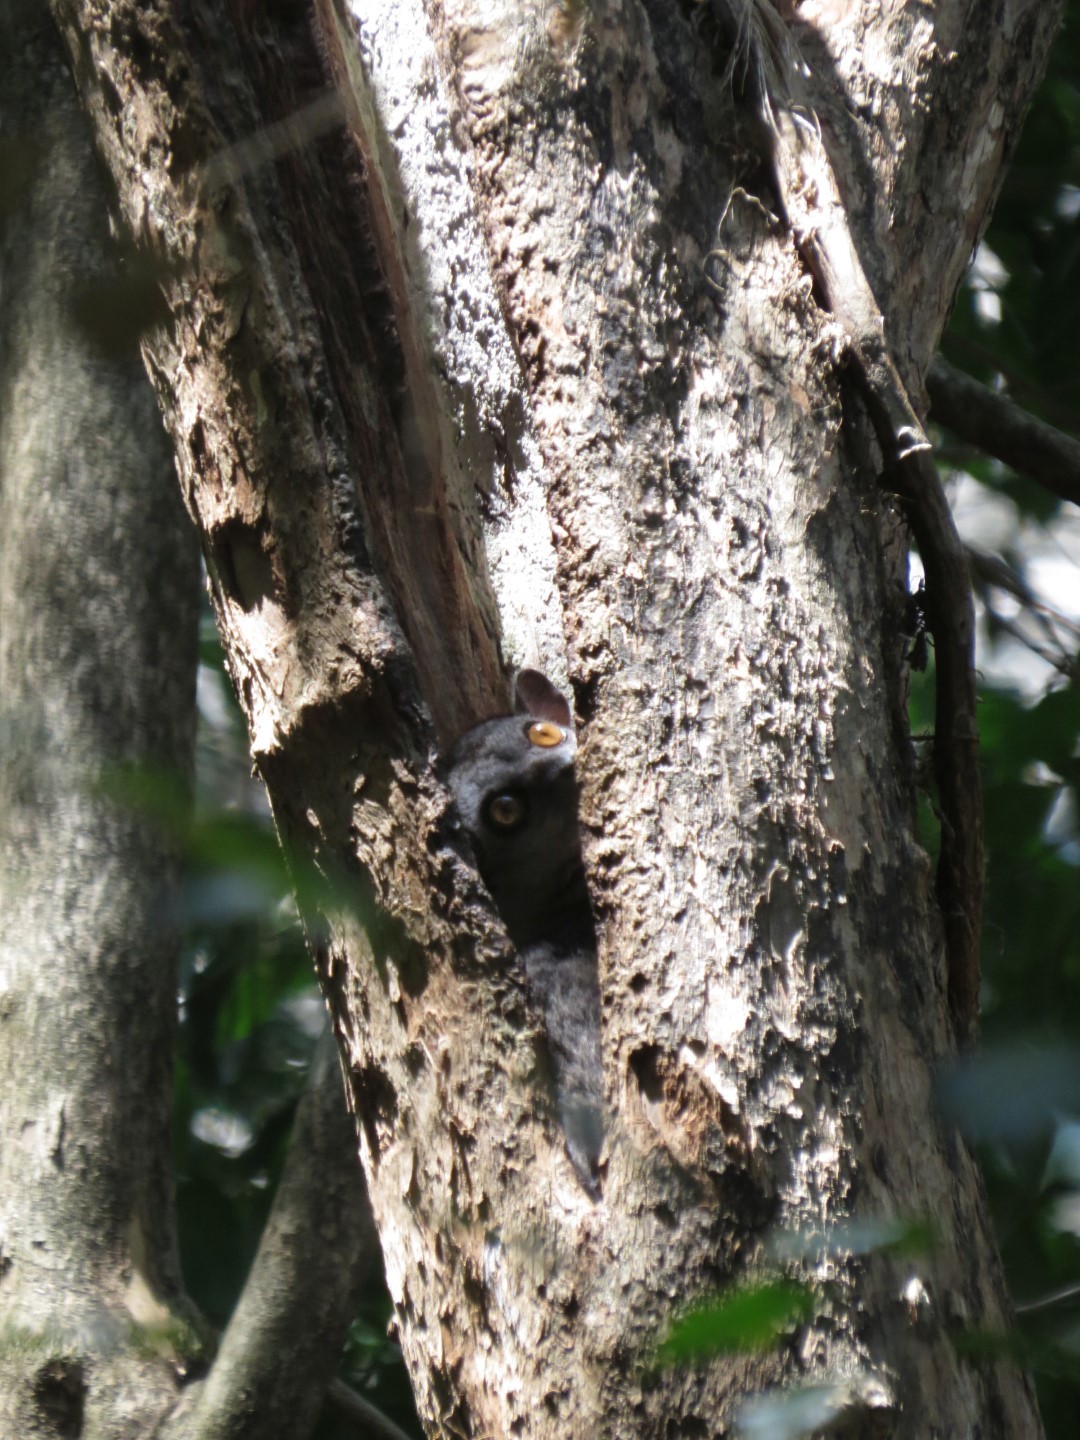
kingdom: Animalia
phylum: Chordata
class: Mammalia
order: Primates
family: Lepilemuridae
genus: Lepilemur
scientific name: Lepilemur randrianasoloi
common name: Bemaraha sportive lemur
